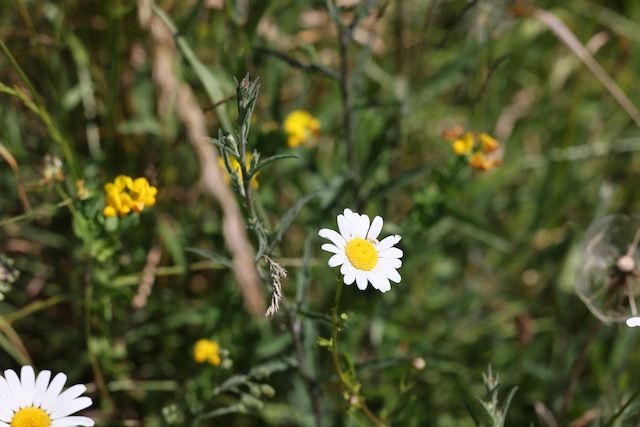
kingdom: Plantae
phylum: Tracheophyta
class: Magnoliopsida
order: Asterales
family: Asteraceae
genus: Leucanthemum
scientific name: Leucanthemum vulgare
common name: Oxeye daisy
